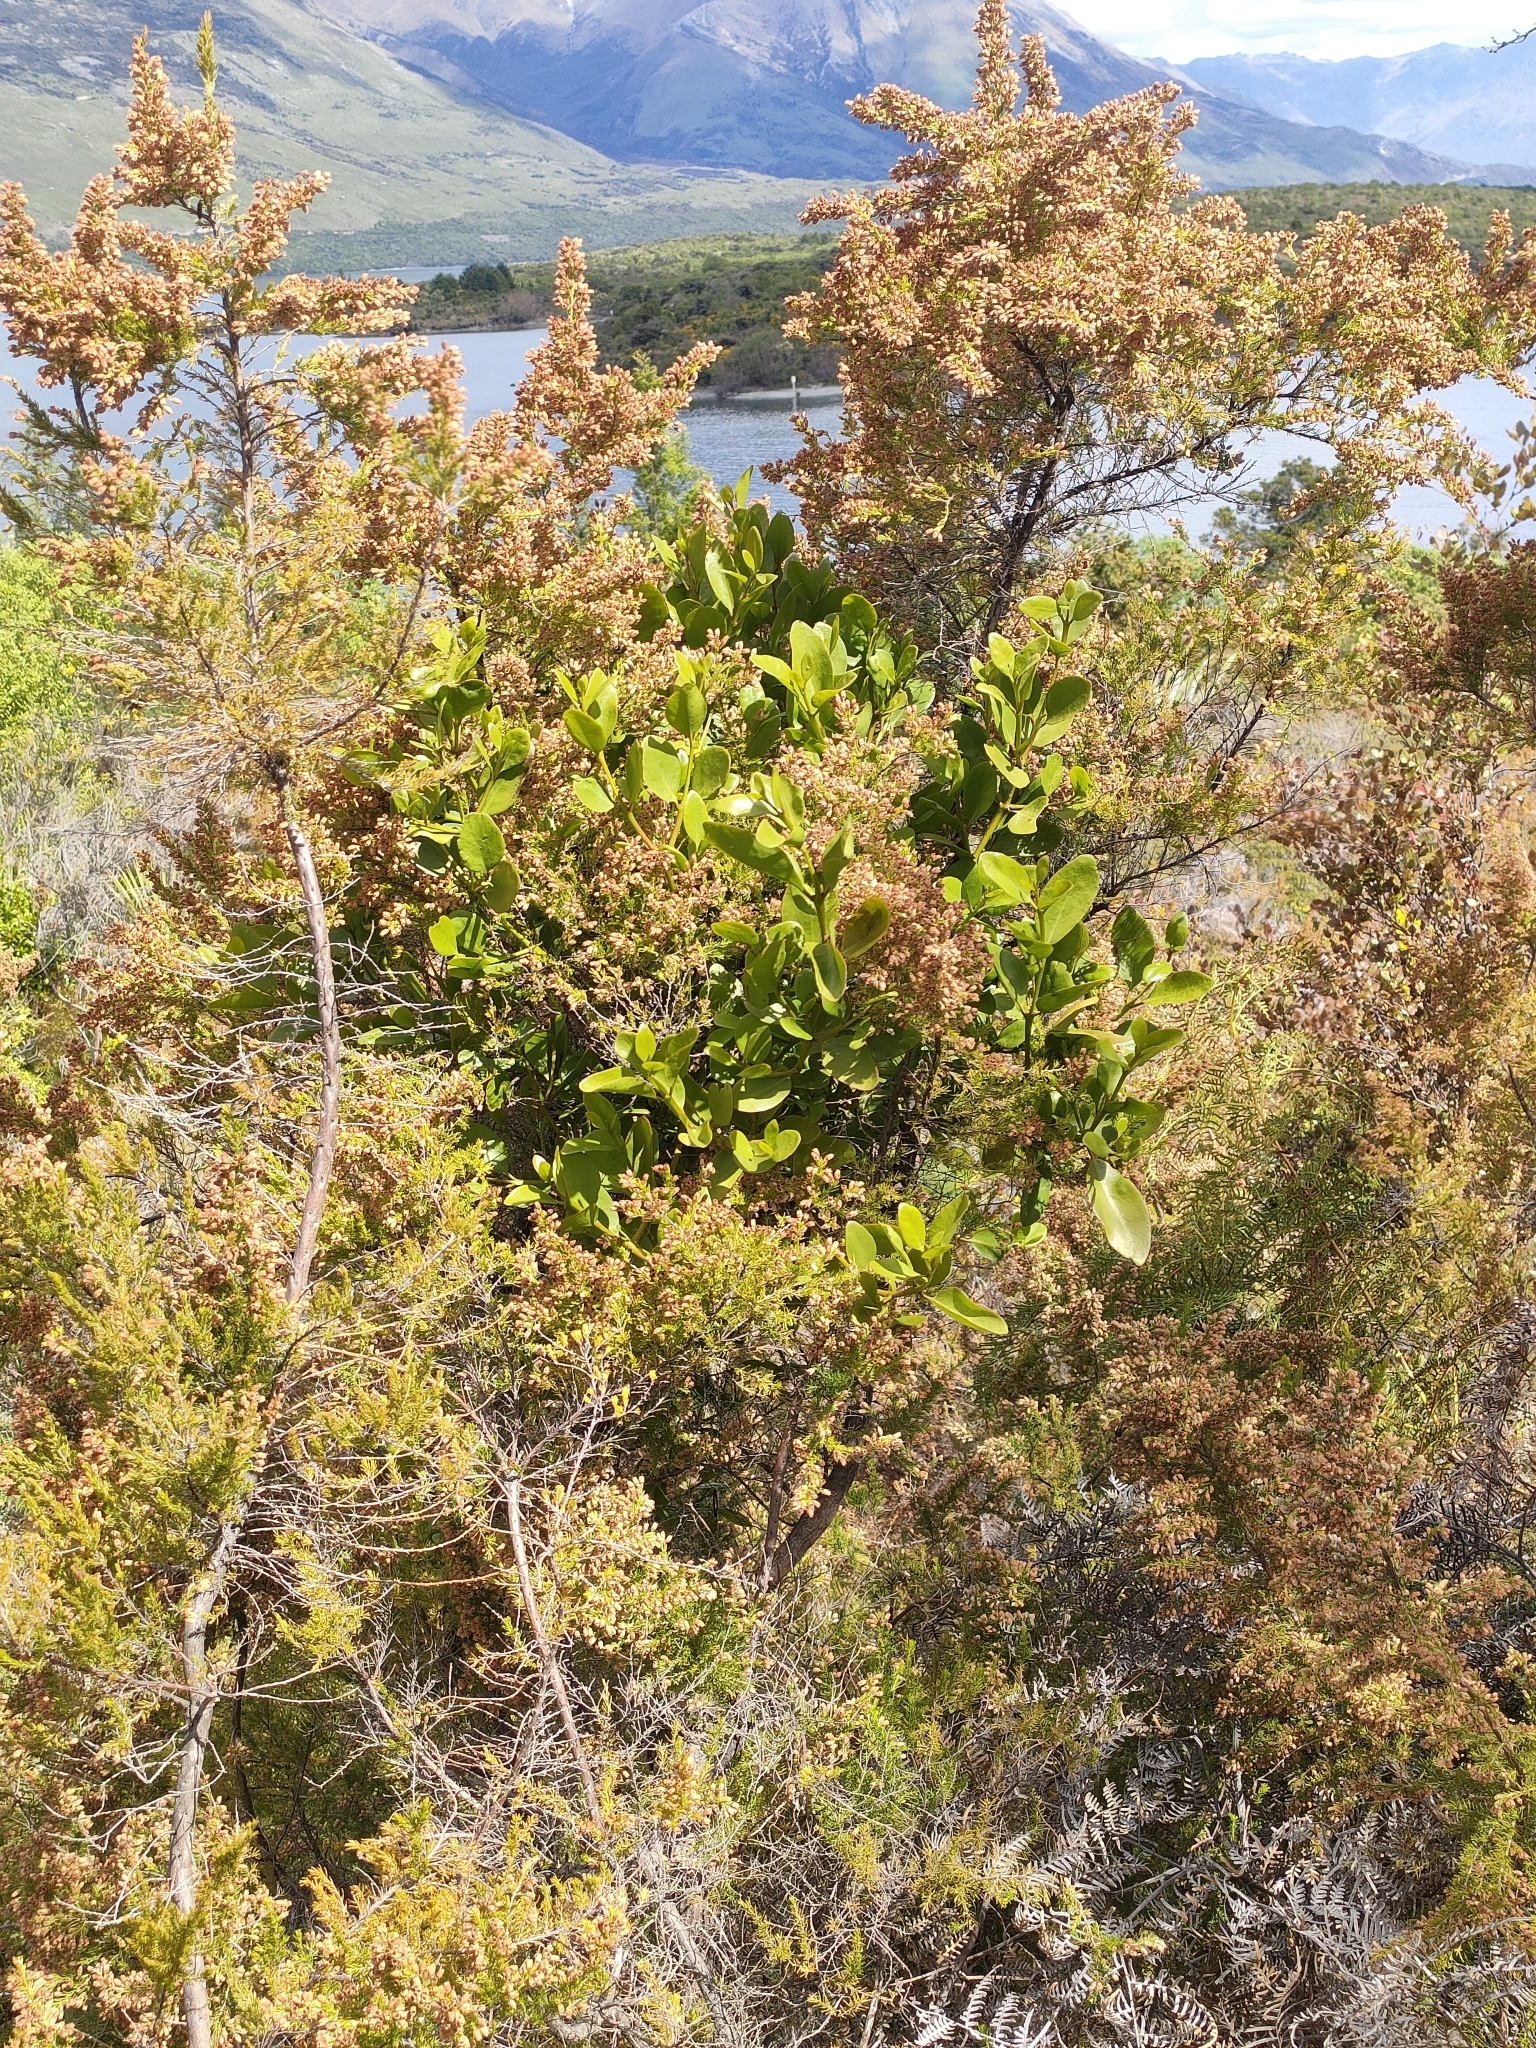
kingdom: Plantae
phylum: Tracheophyta
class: Magnoliopsida
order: Santalales
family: Loranthaceae
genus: Ileostylus
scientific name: Ileostylus micranthus
